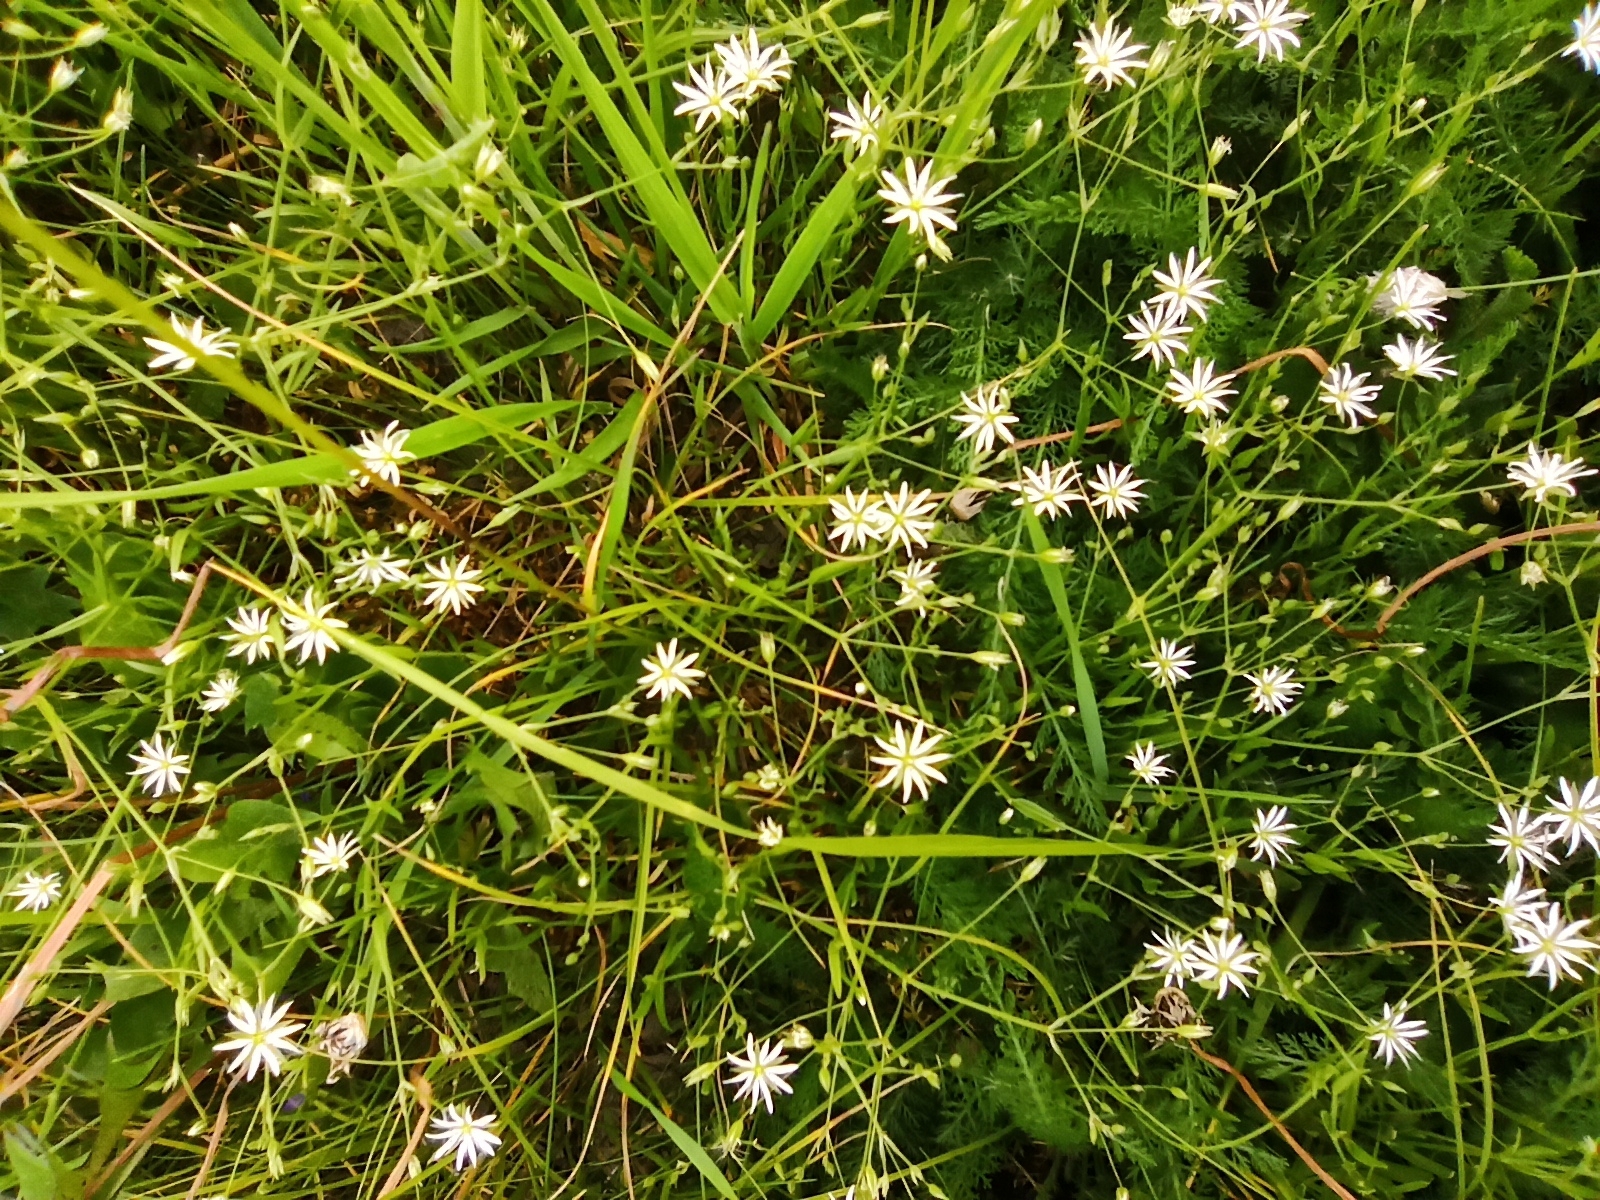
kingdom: Plantae
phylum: Tracheophyta
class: Magnoliopsida
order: Caryophyllales
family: Caryophyllaceae
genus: Stellaria
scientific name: Stellaria graminea
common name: Grass-like starwort
